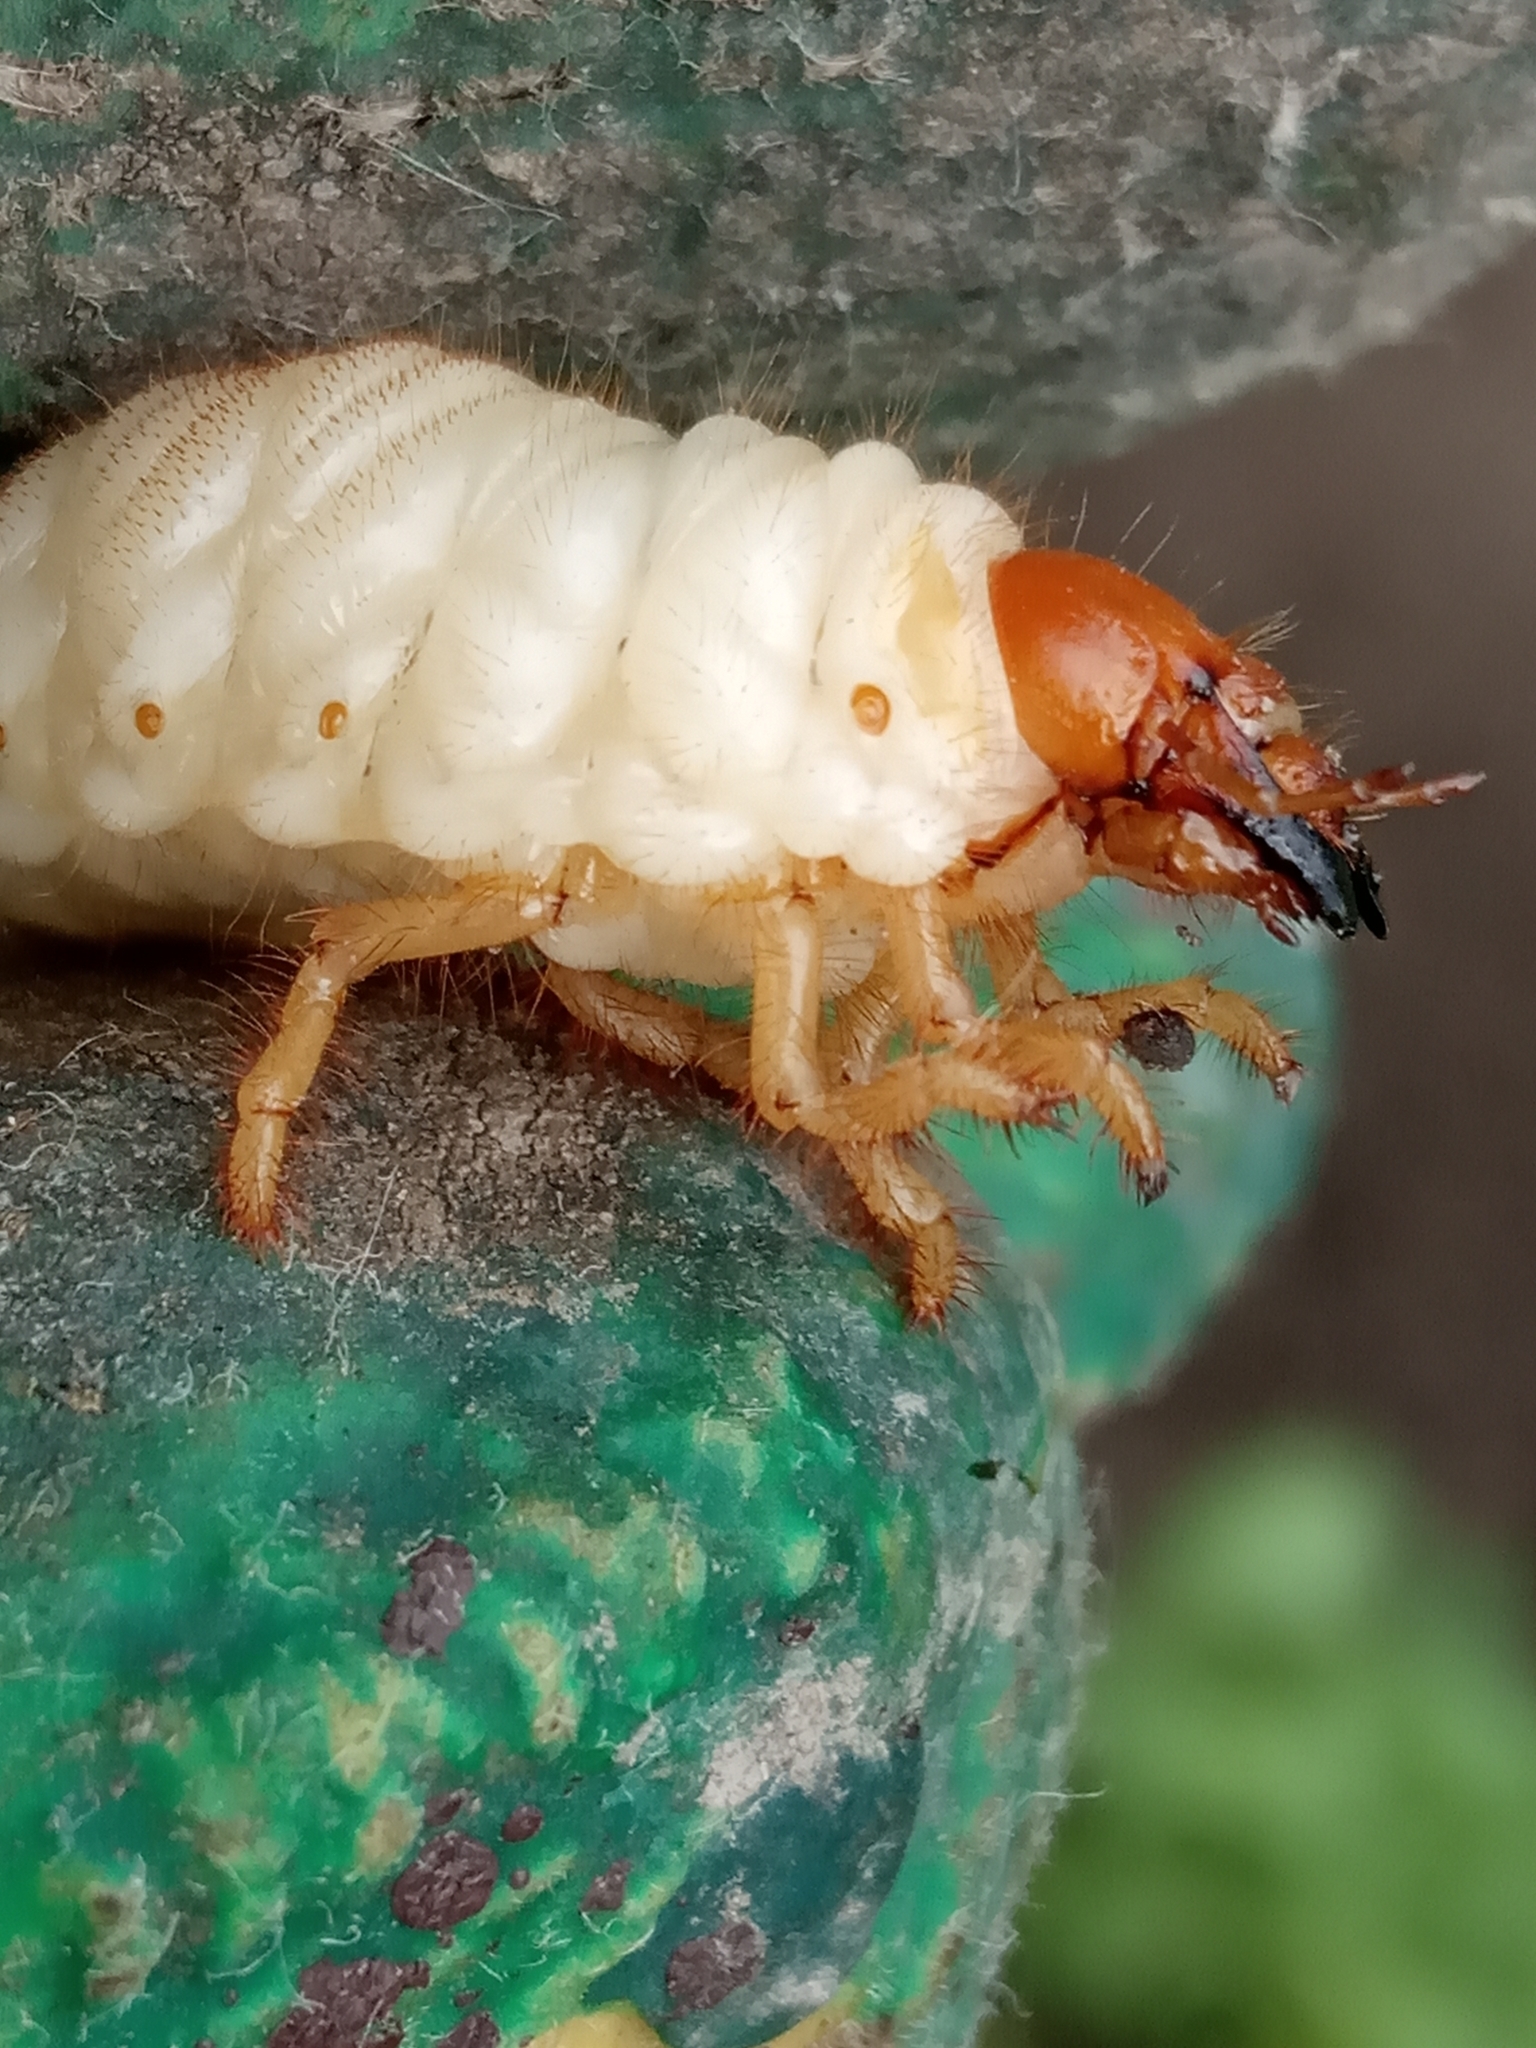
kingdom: Animalia
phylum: Arthropoda
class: Insecta
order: Coleoptera
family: Melolonthidae
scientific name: Melolonthidae
